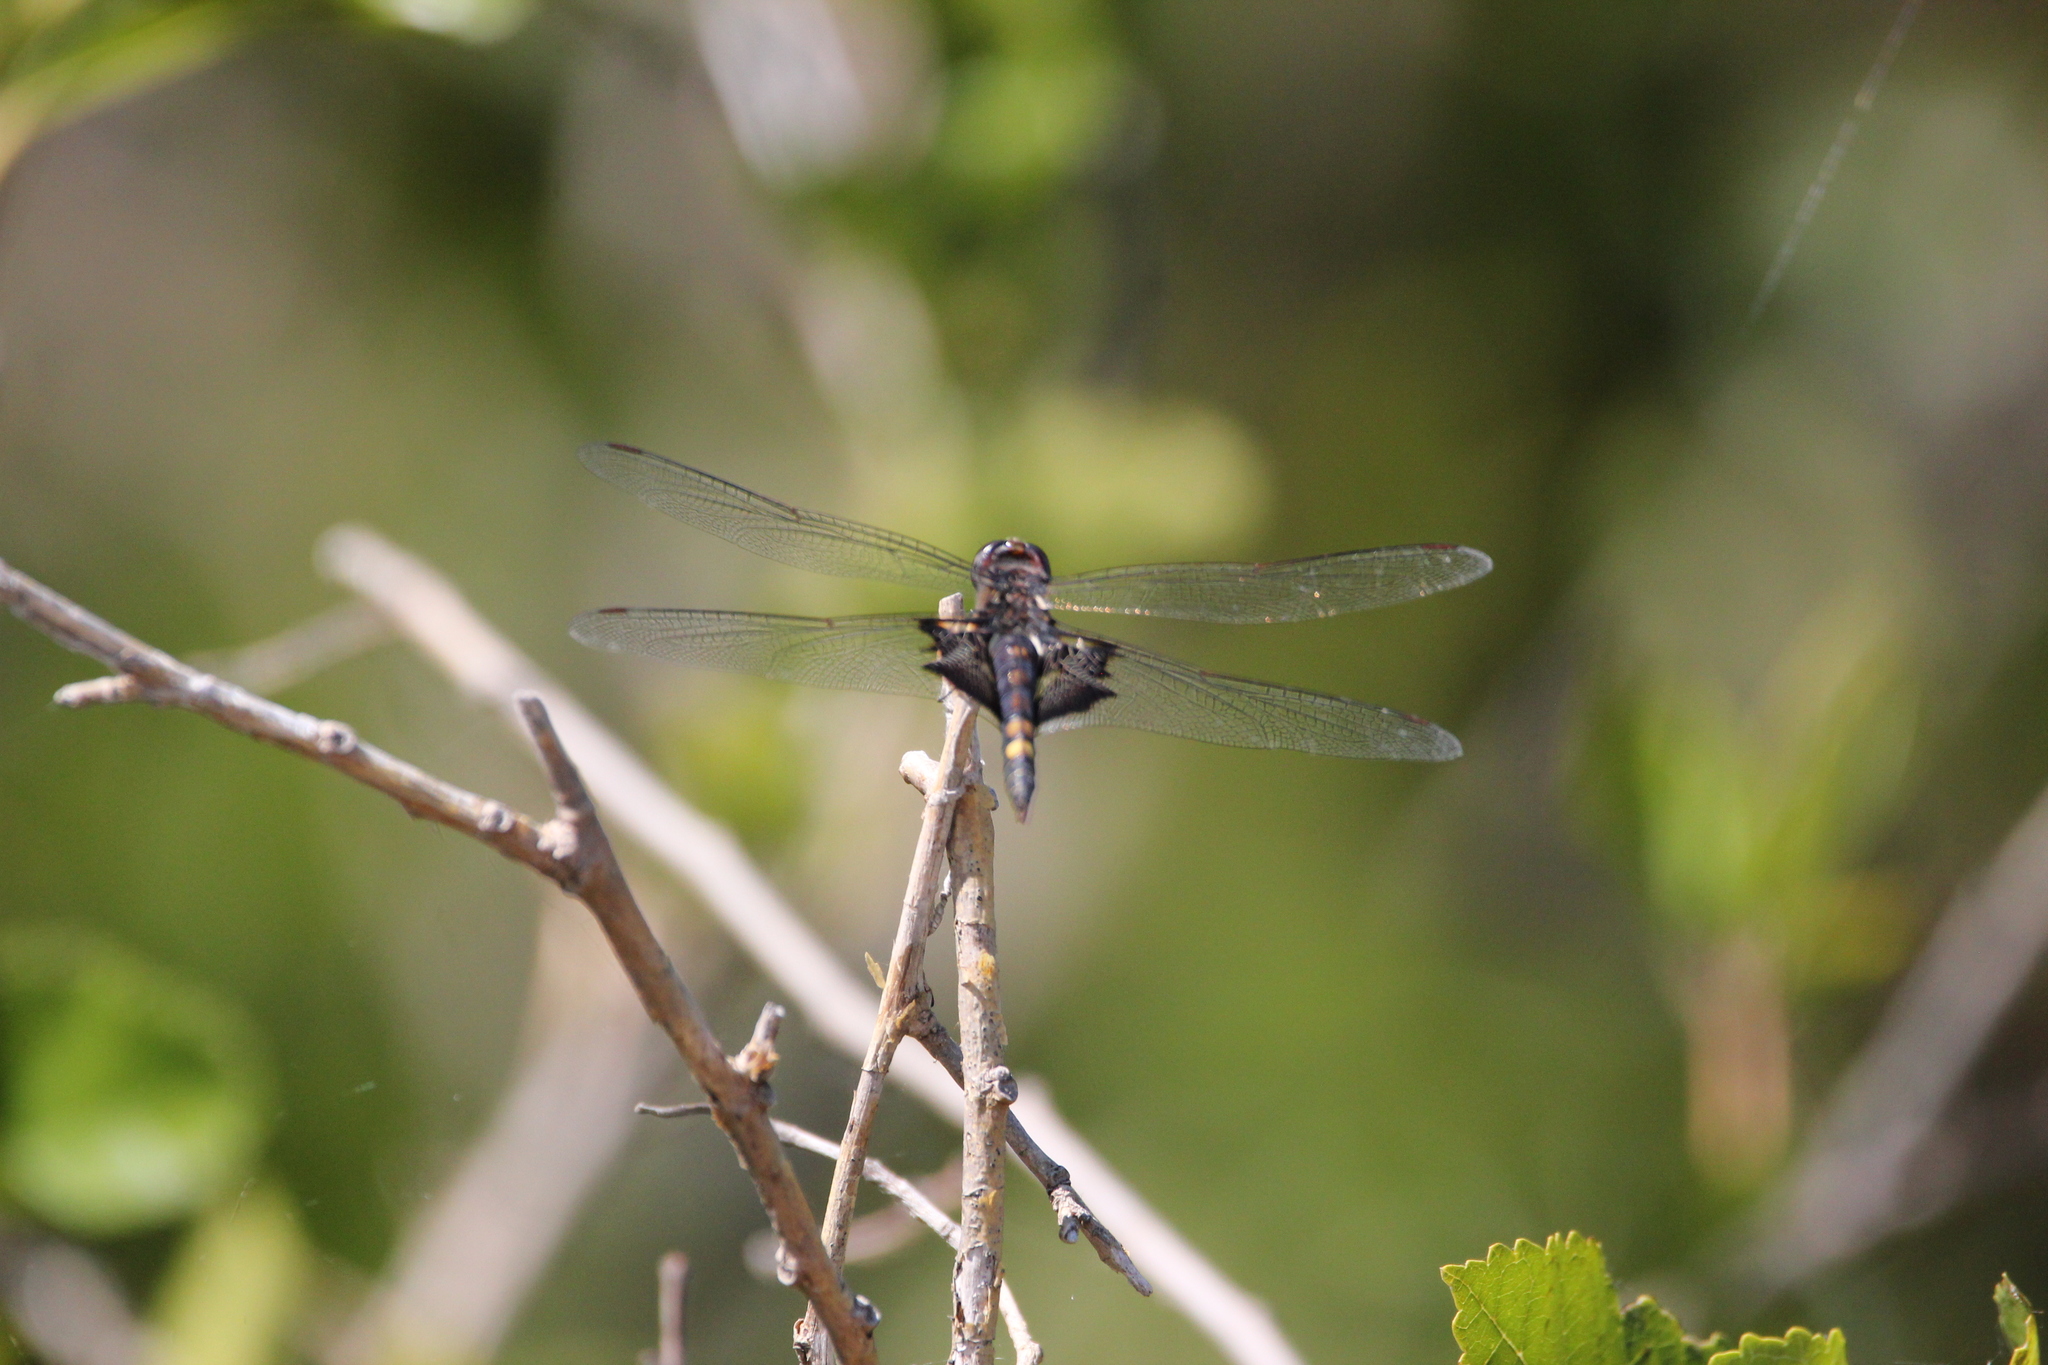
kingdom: Animalia
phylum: Arthropoda
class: Insecta
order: Odonata
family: Libellulidae
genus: Tramea
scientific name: Tramea lacerata
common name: Black saddlebags
